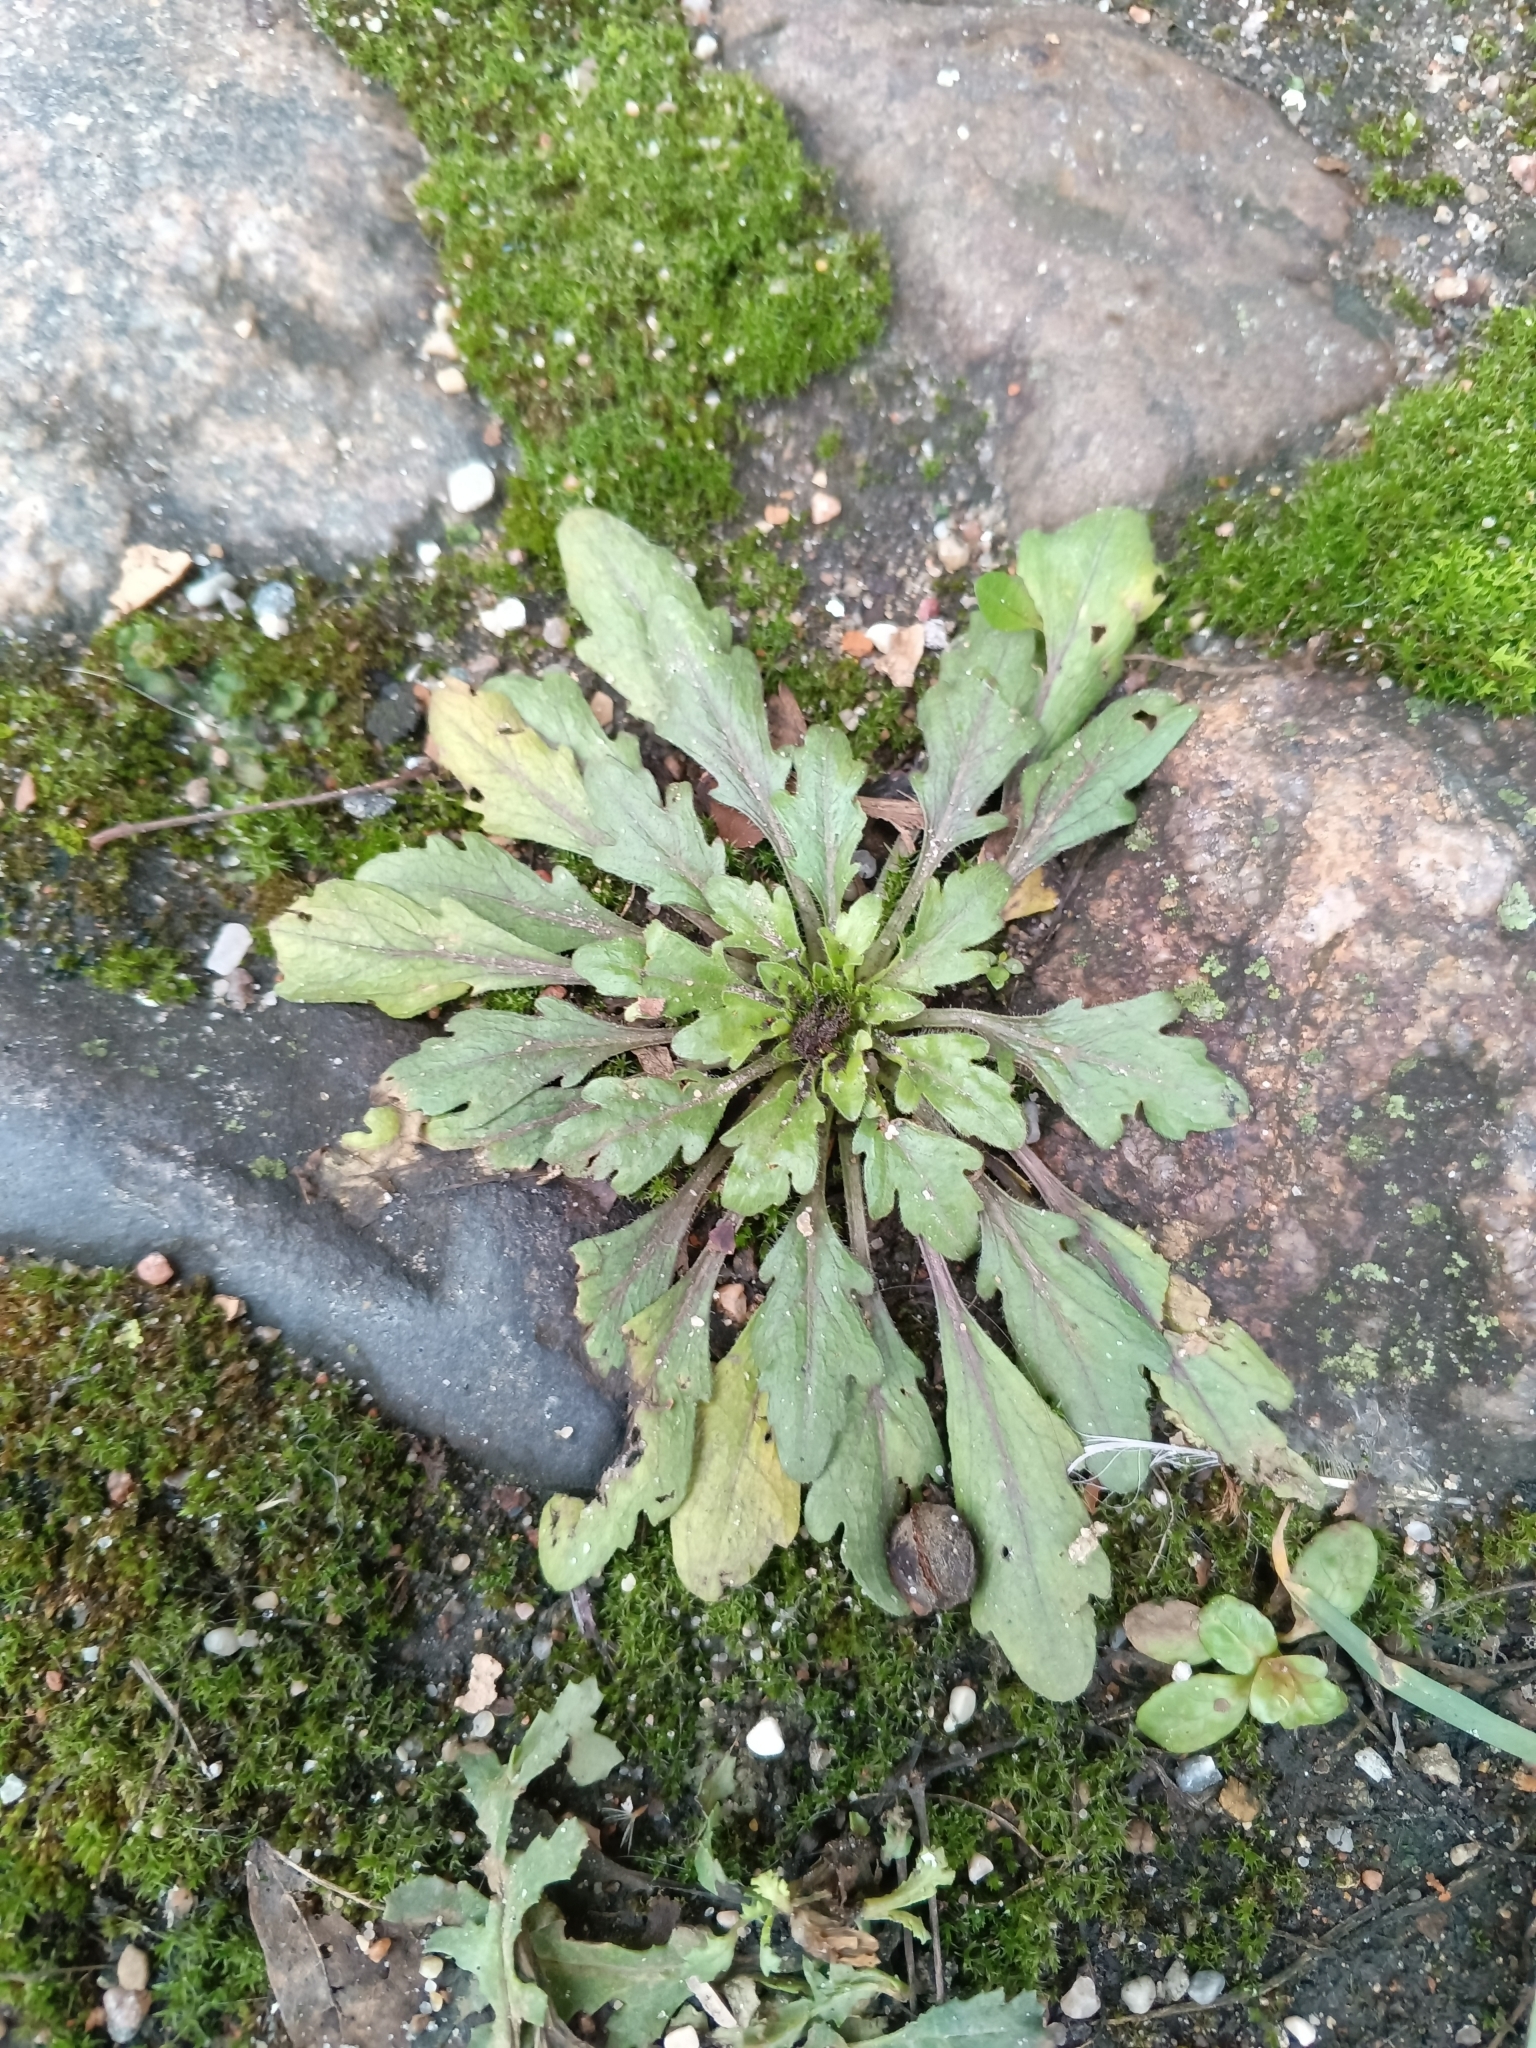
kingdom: Plantae
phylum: Tracheophyta
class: Magnoliopsida
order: Asterales
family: Asteraceae
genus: Erigeron
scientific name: Erigeron canadensis
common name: Canadian fleabane
